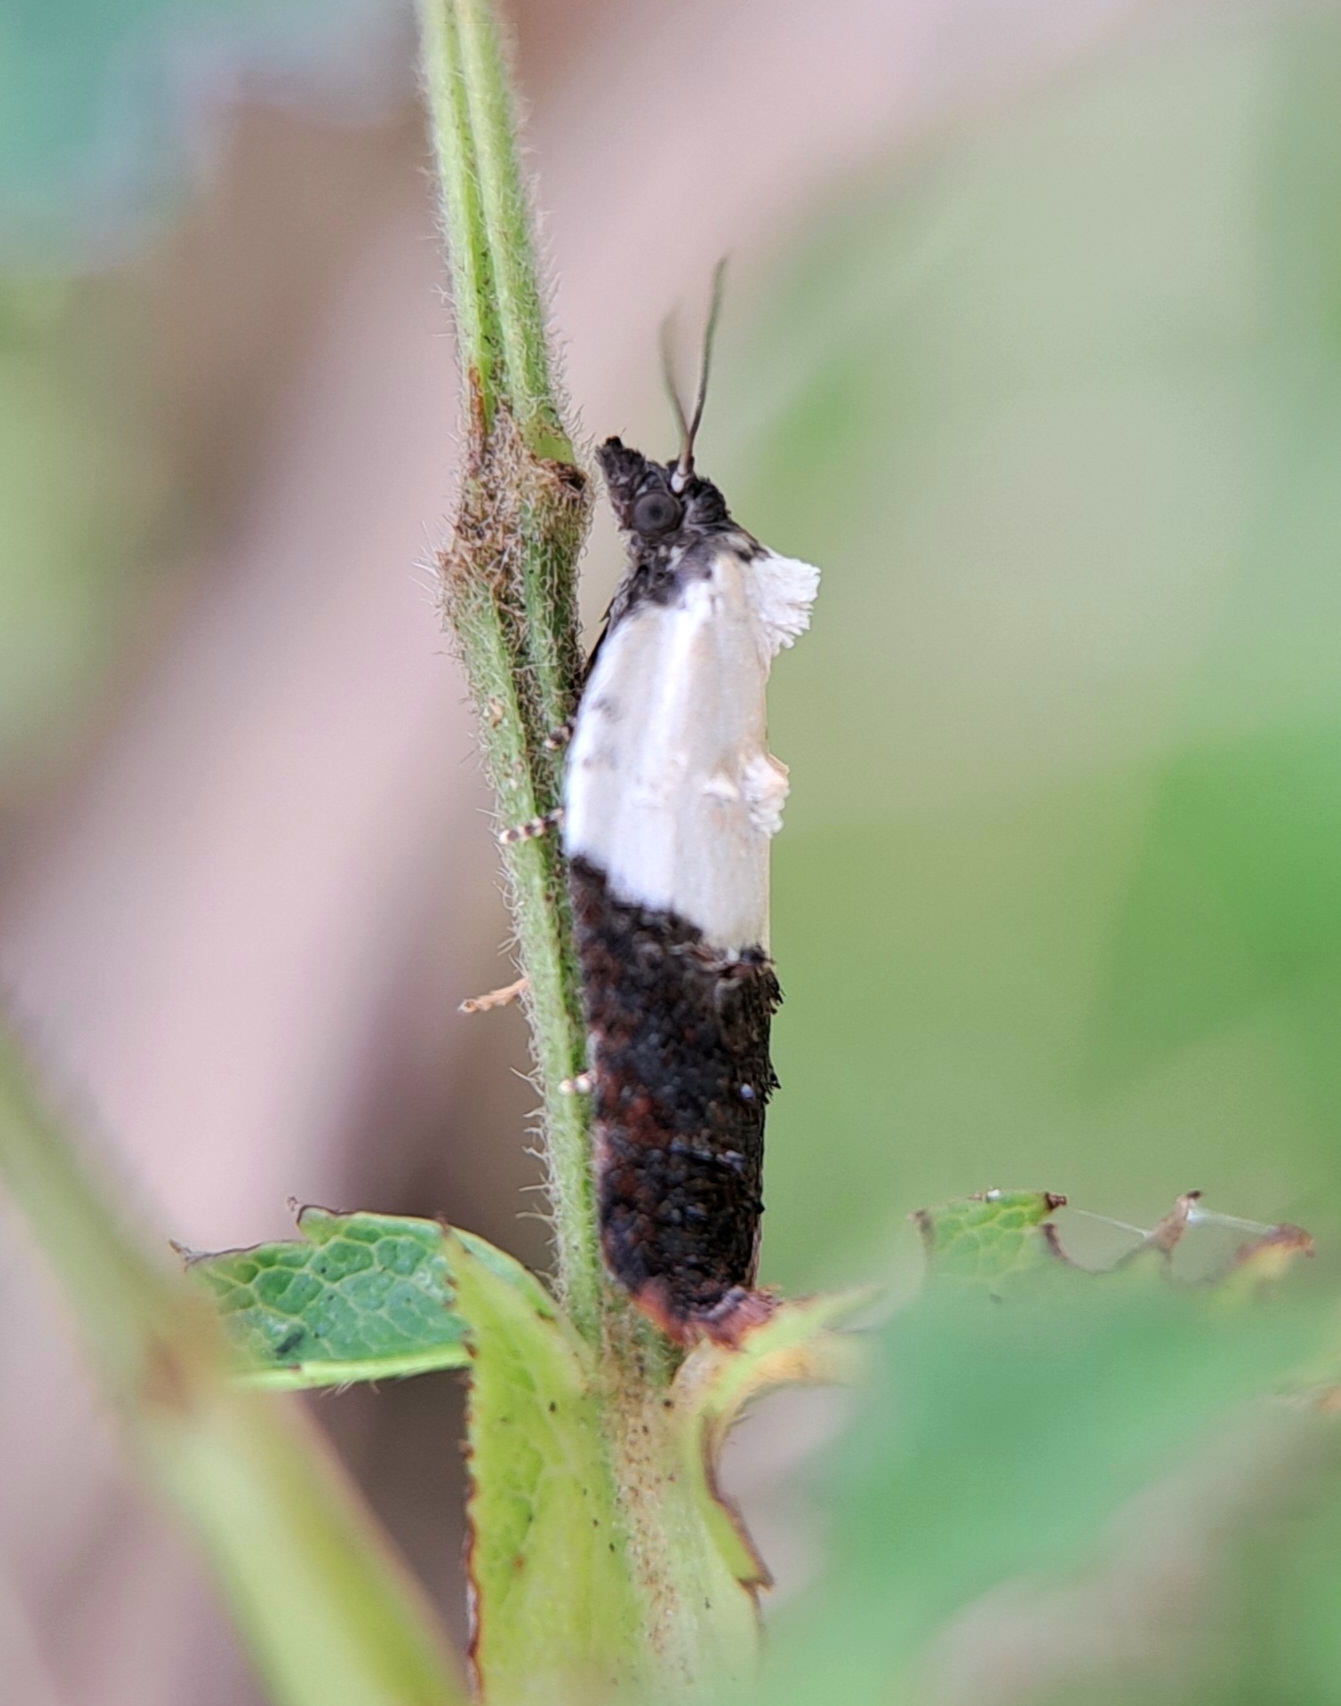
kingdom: Animalia
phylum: Arthropoda
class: Insecta
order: Lepidoptera
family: Tortricidae
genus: Acleris
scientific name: Acleris variegana
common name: Garden rose tortrix
